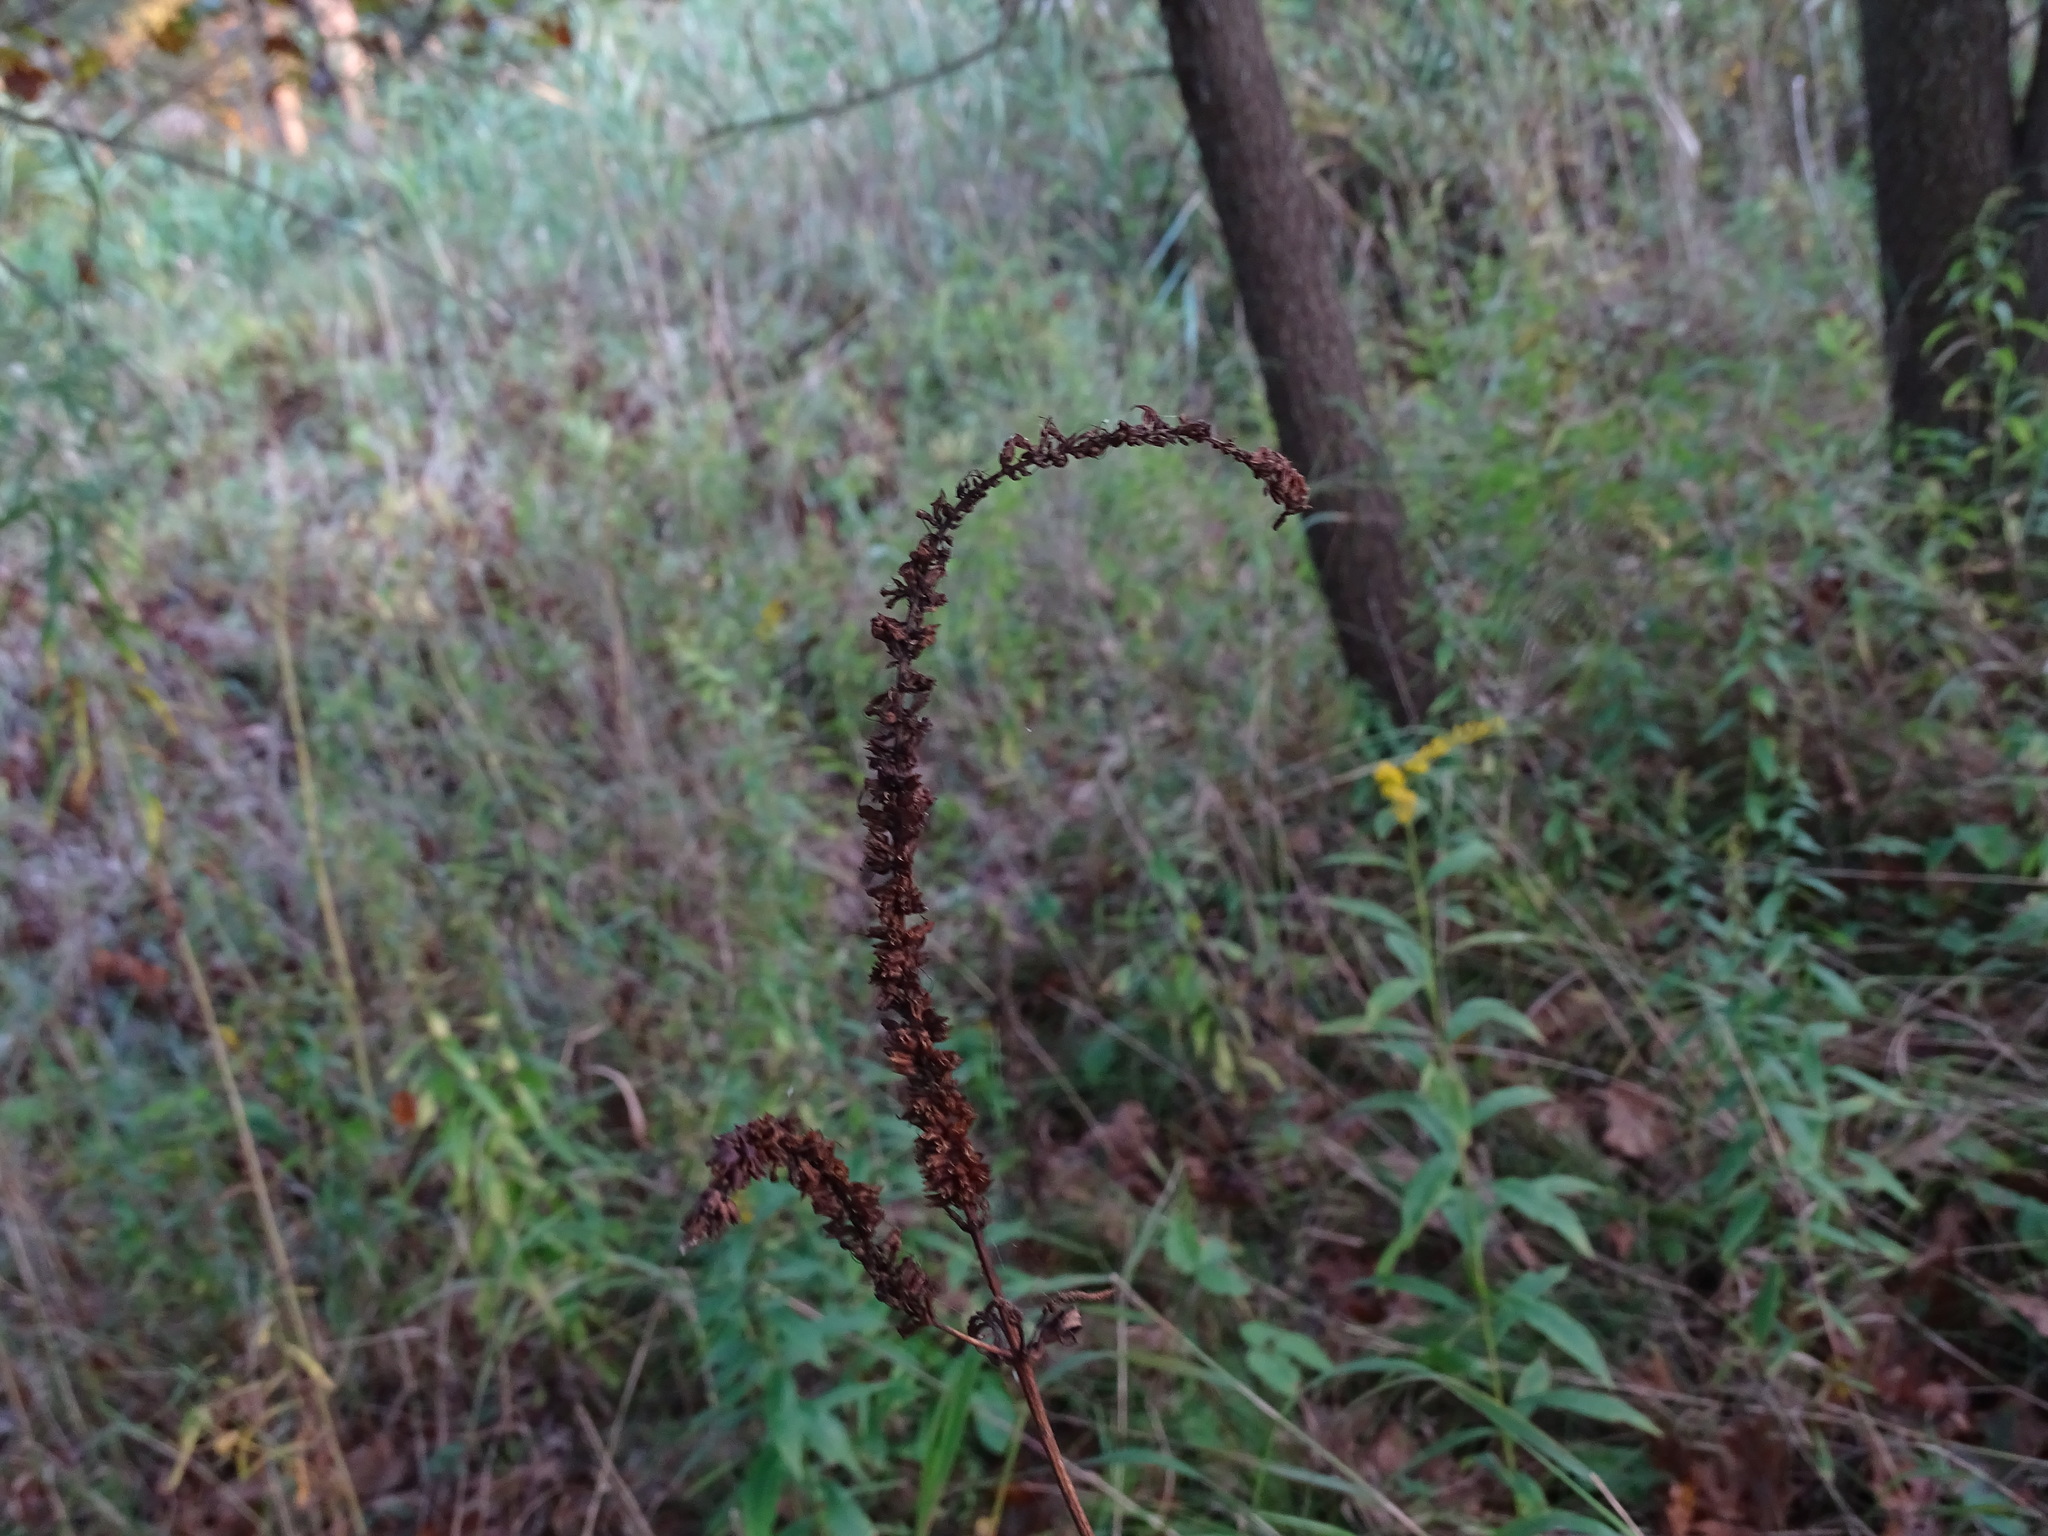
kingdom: Plantae
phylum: Tracheophyta
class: Magnoliopsida
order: Lamiales
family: Plantaginaceae
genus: Veronicastrum
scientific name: Veronicastrum virginicum
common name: Blackroot
